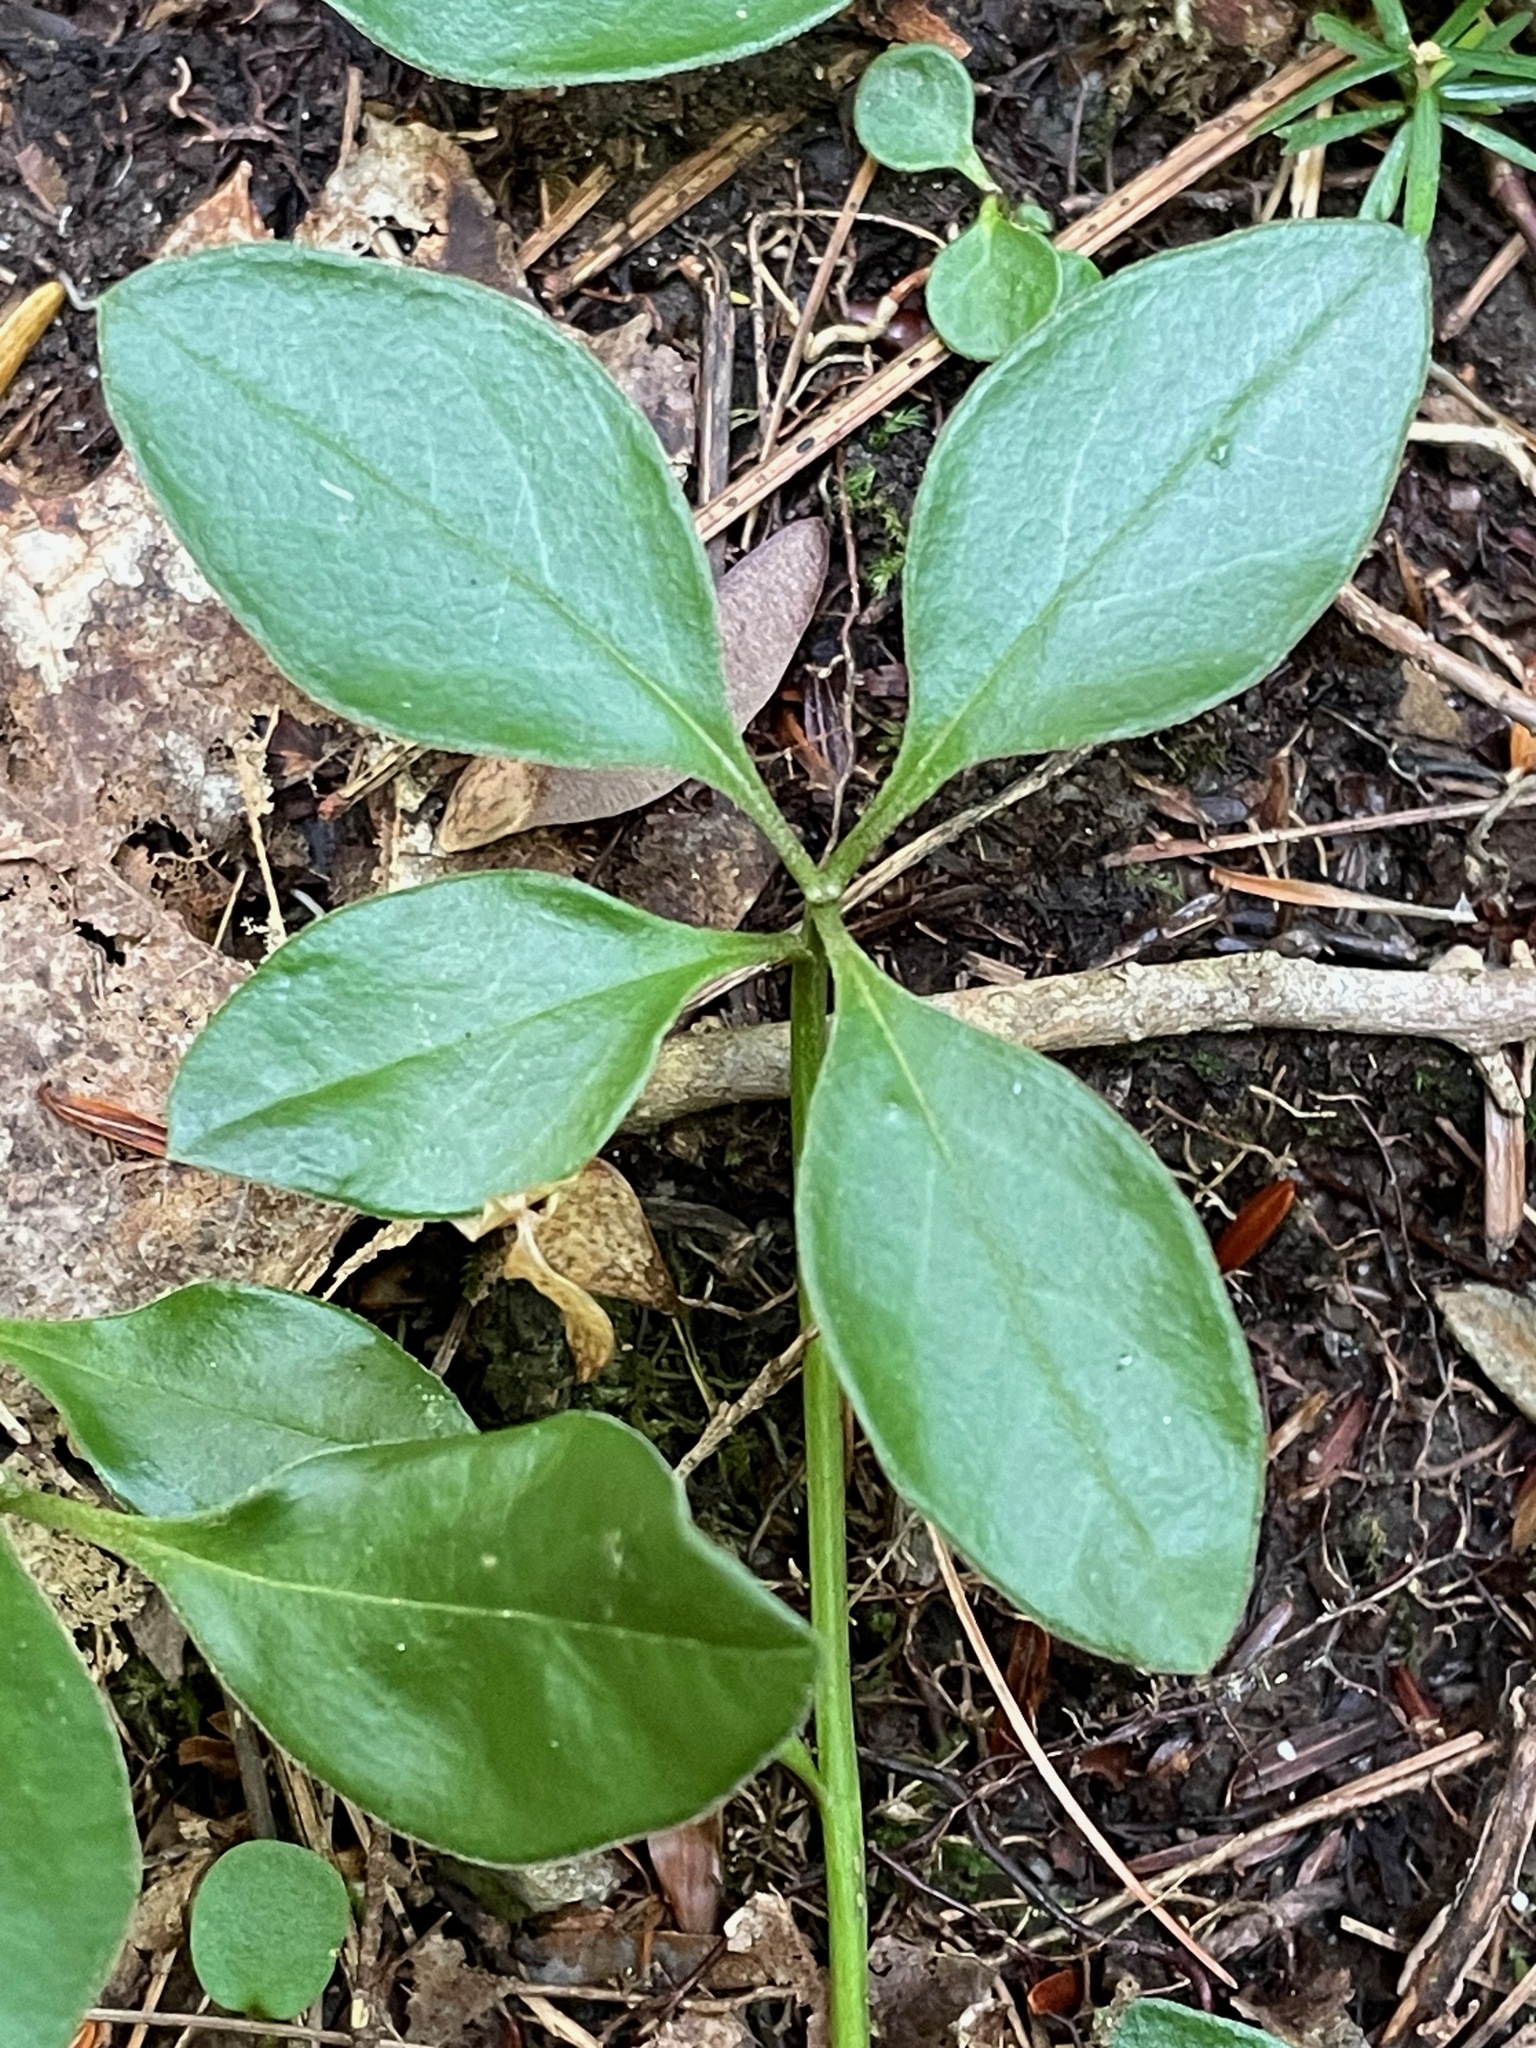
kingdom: Plantae
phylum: Tracheophyta
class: Magnoliopsida
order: Fabales
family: Polygalaceae
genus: Polygaloides
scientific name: Polygaloides paucifolia
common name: Bird-on-the-wing
